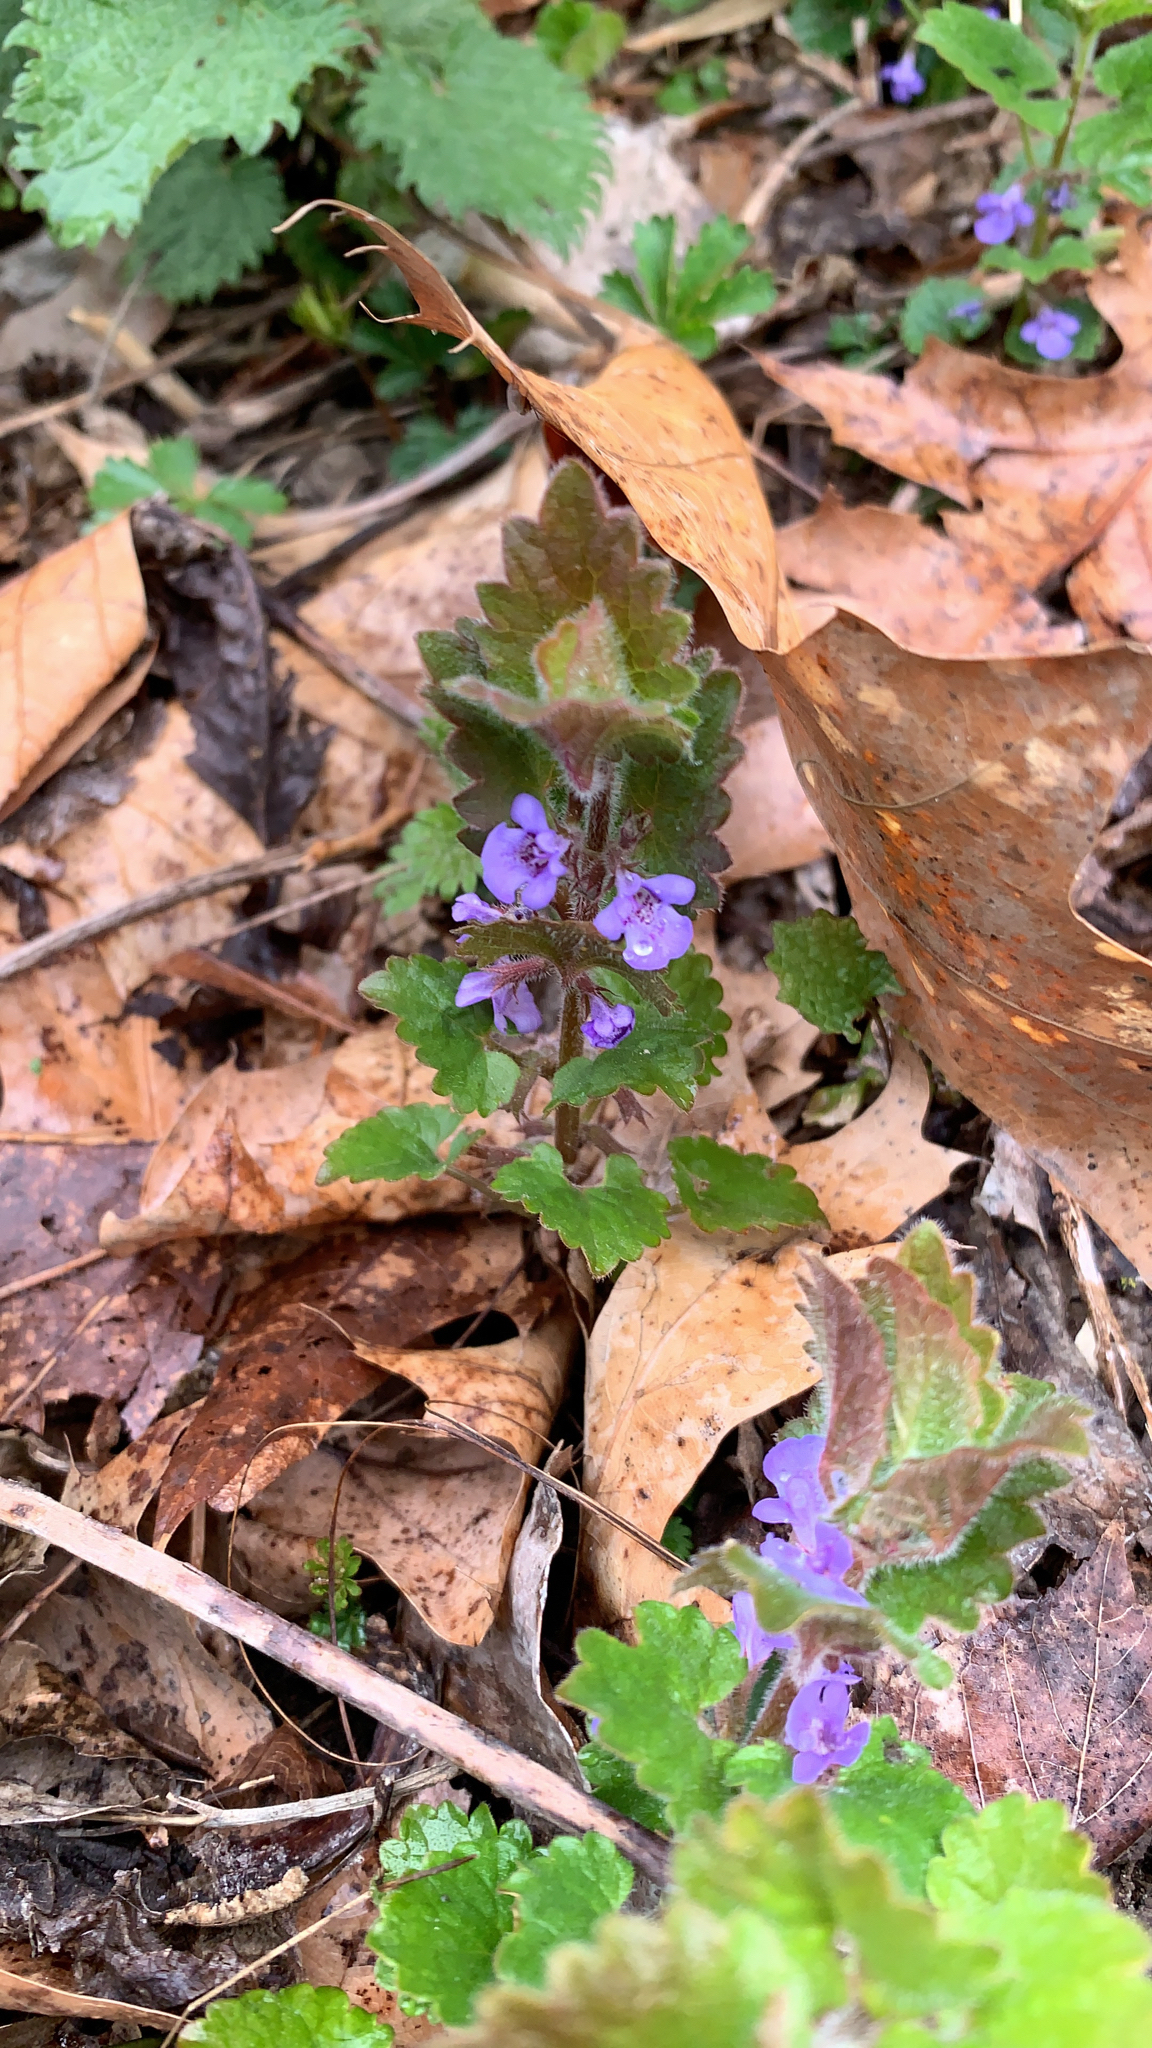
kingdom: Plantae
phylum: Tracheophyta
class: Magnoliopsida
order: Lamiales
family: Lamiaceae
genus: Glechoma
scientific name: Glechoma hederacea
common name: Ground ivy
